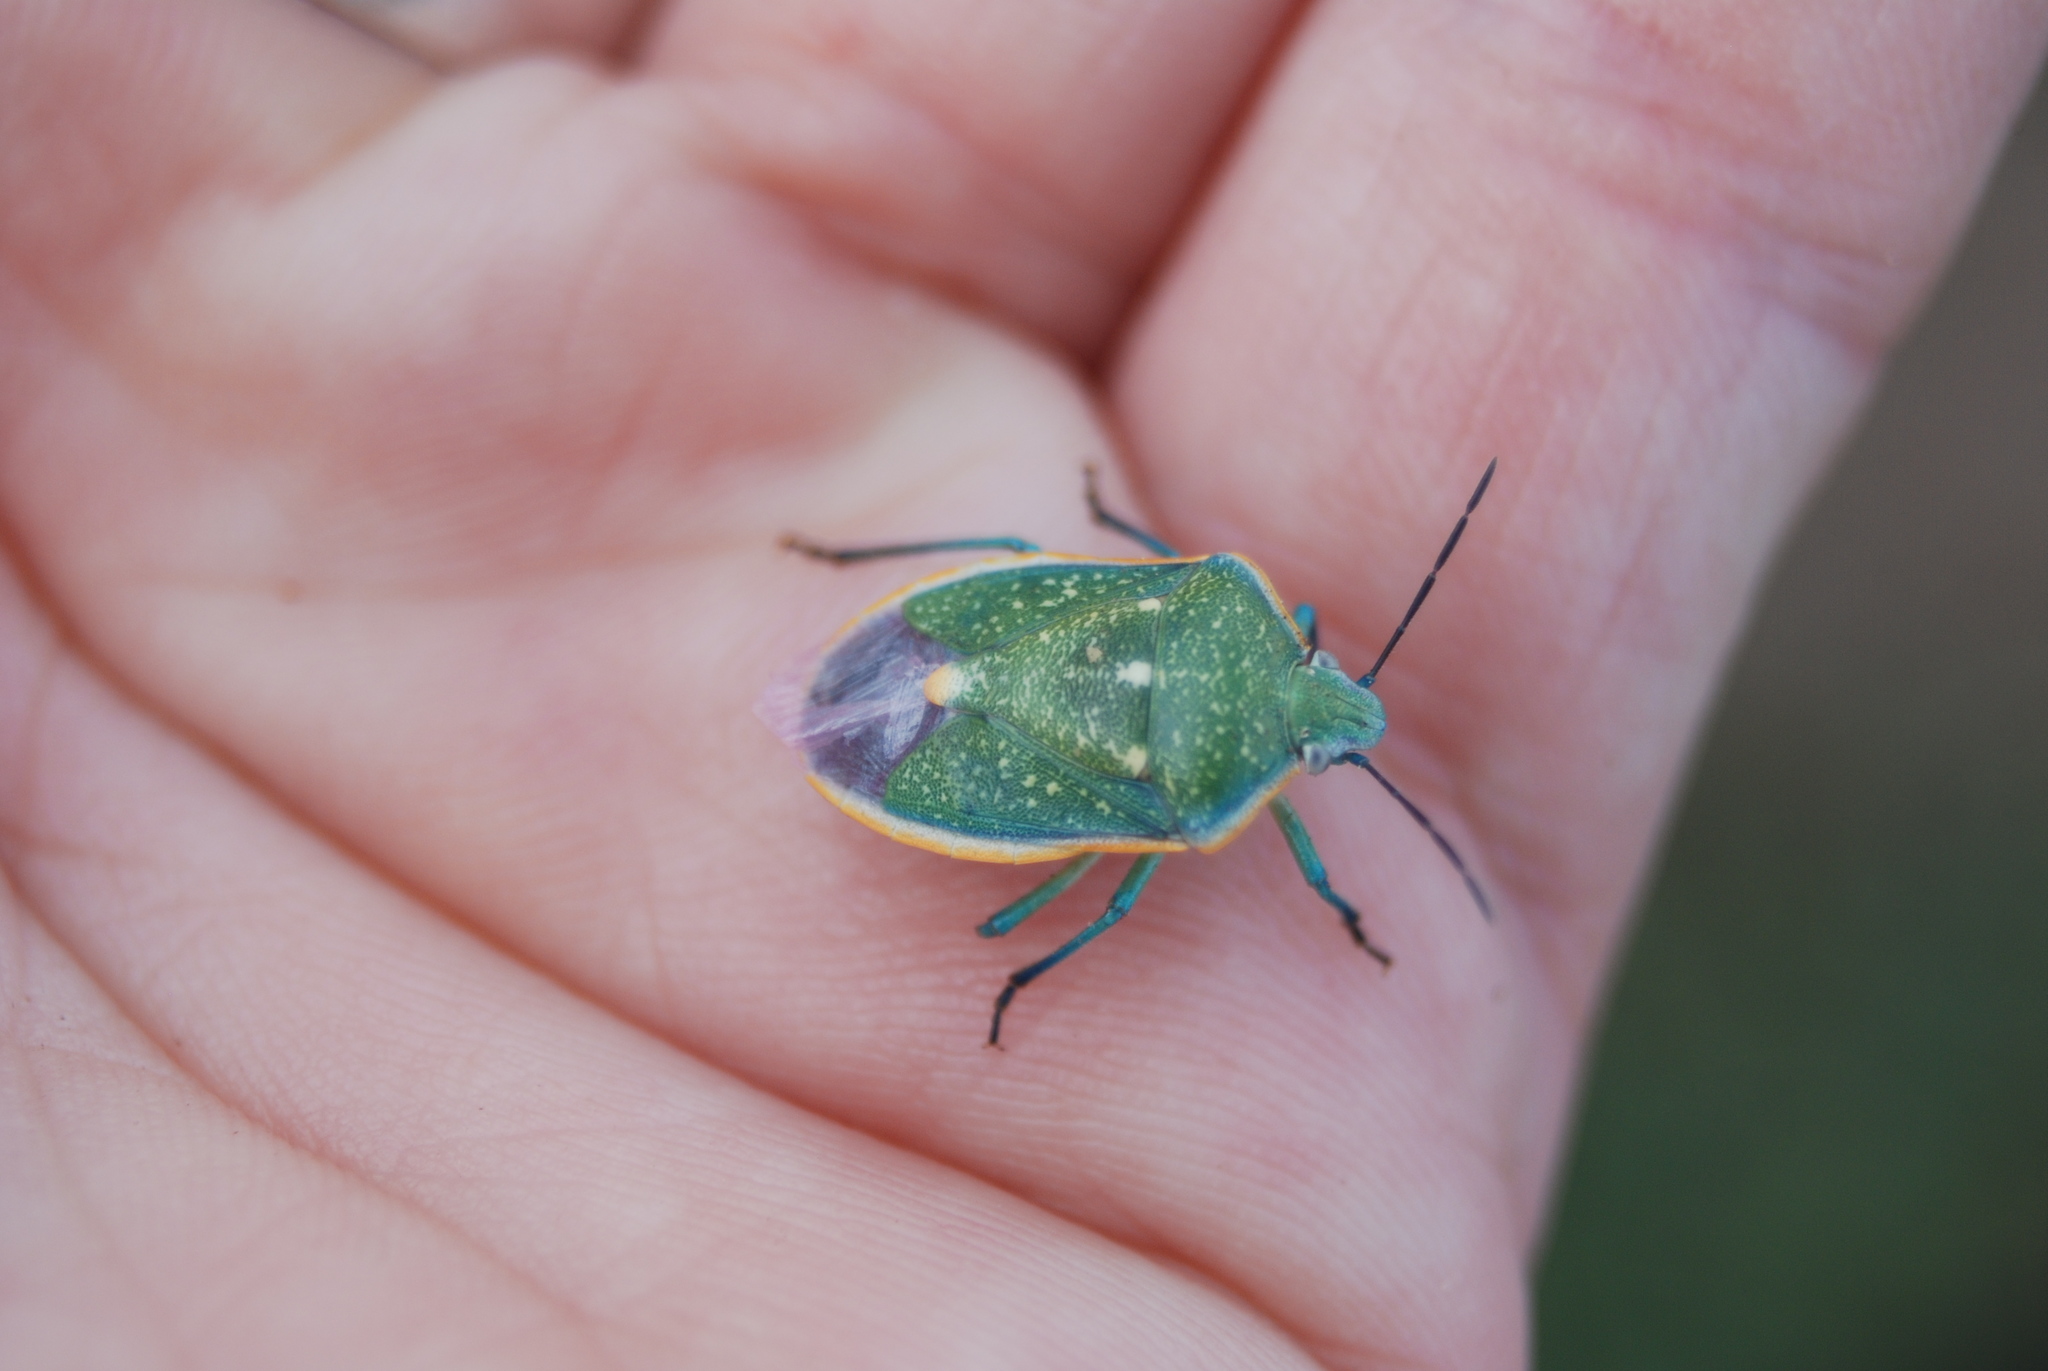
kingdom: Animalia
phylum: Arthropoda
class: Insecta
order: Hemiptera
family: Pentatomidae
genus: Chlorochroa
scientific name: Chlorochroa sayi
